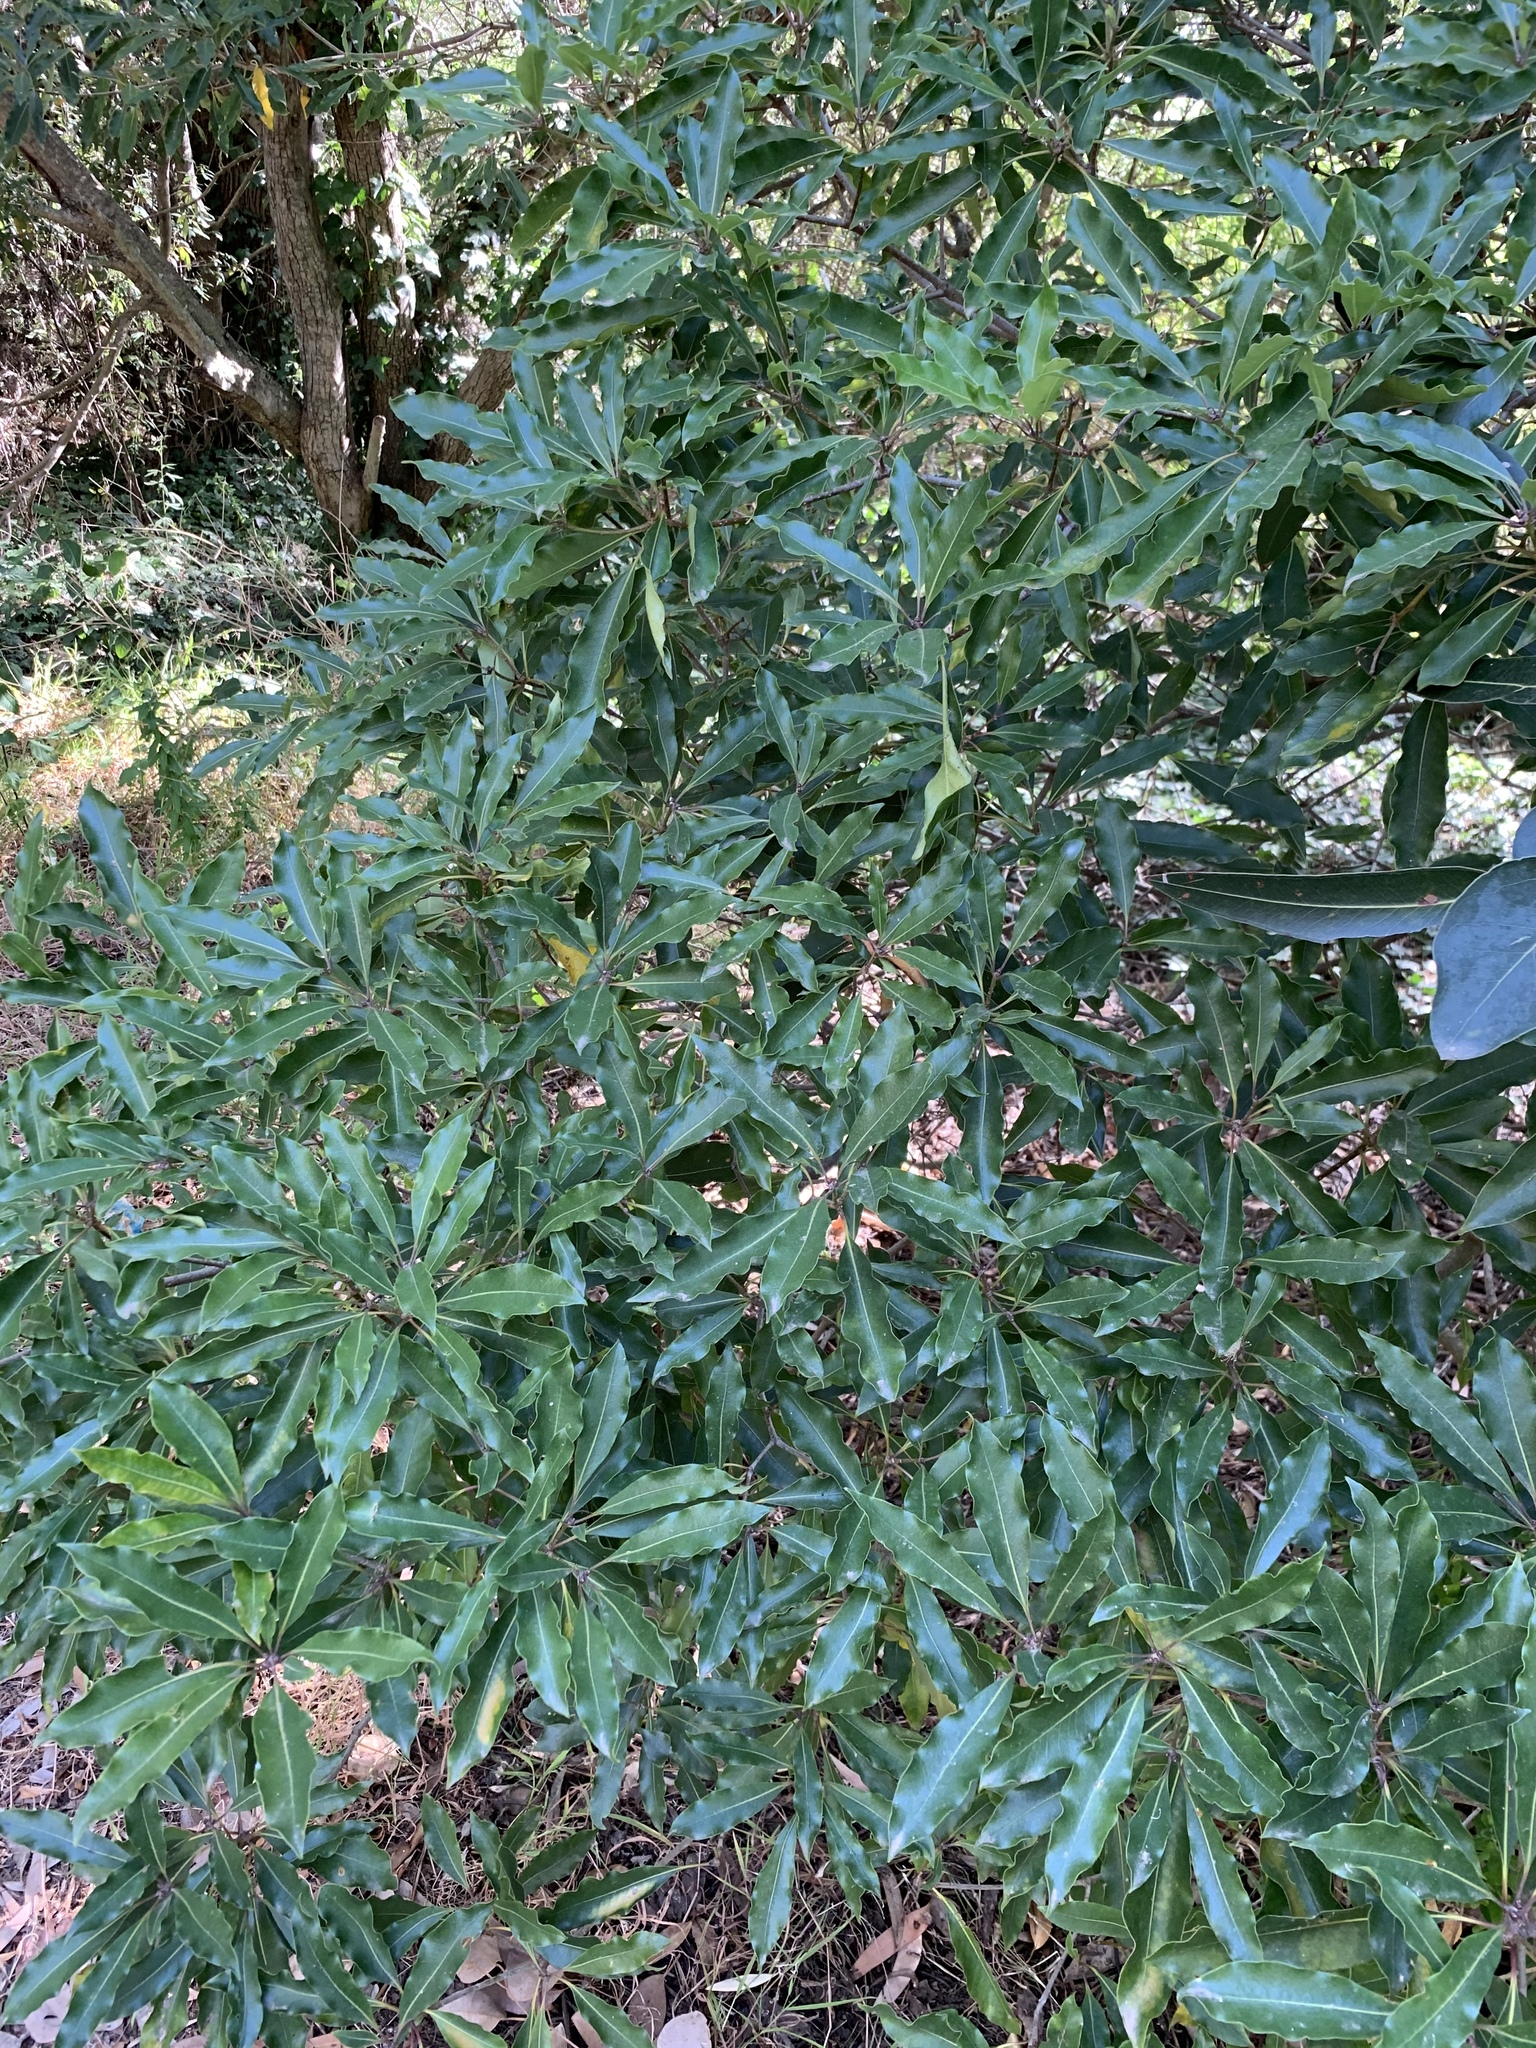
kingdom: Plantae
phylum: Tracheophyta
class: Magnoliopsida
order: Apiales
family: Pittosporaceae
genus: Pittosporum
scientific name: Pittosporum undulatum
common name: Australian cheesewood
